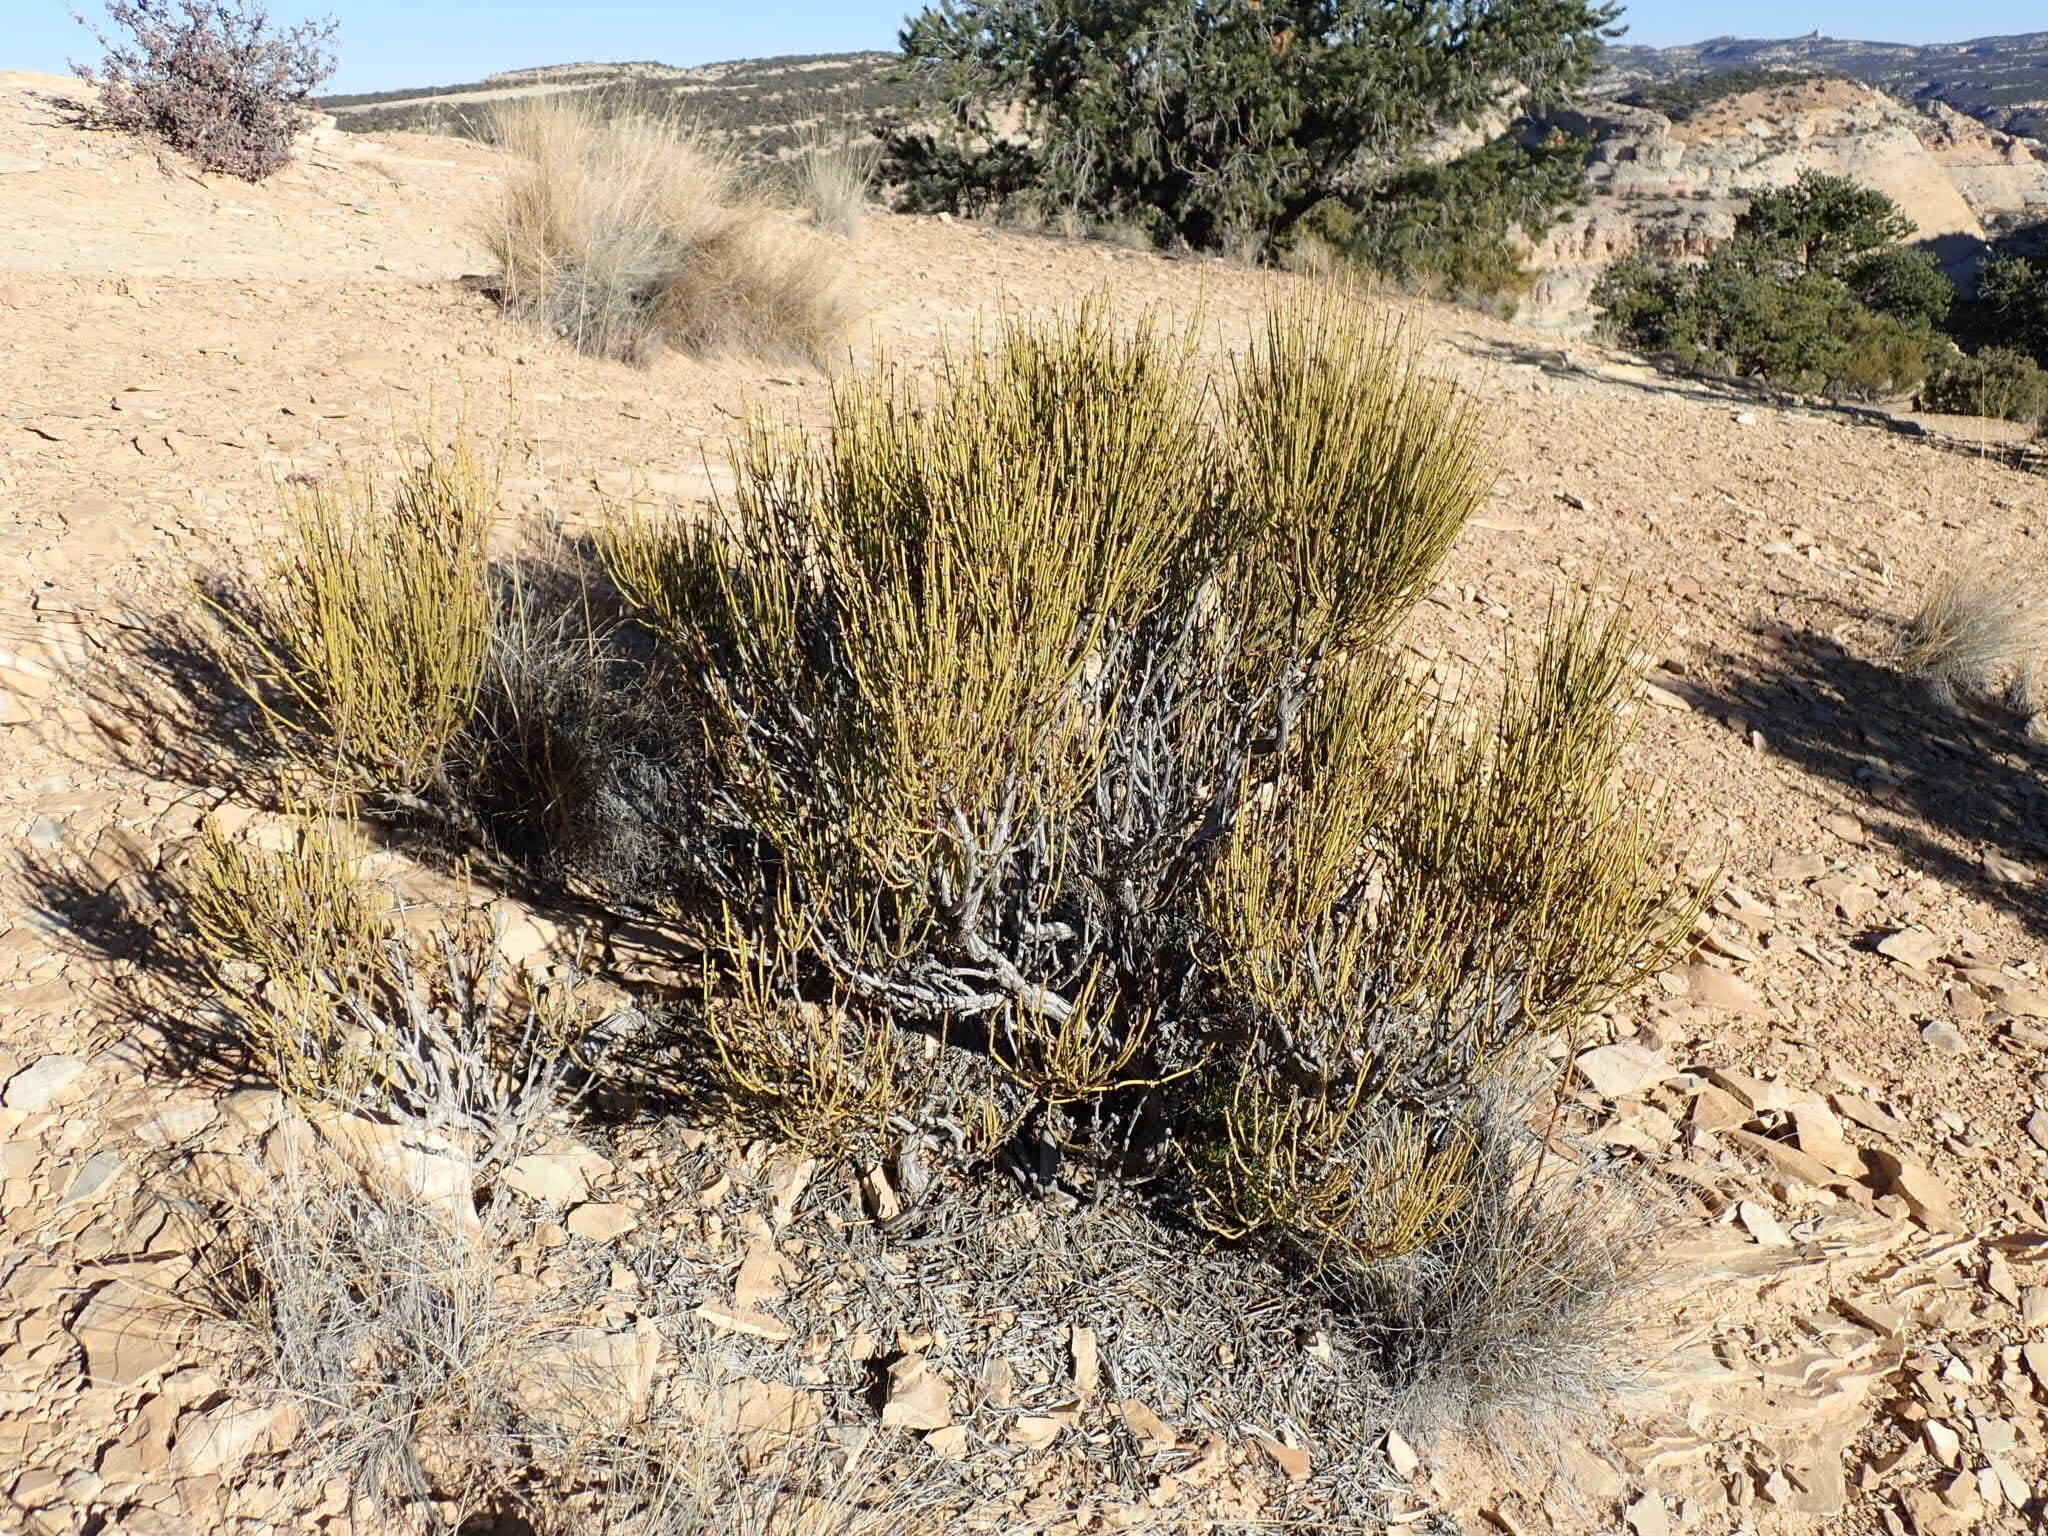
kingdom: Plantae
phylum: Tracheophyta
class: Gnetopsida
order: Ephedrales
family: Ephedraceae
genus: Ephedra
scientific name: Ephedra viridis
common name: Green ephedra
